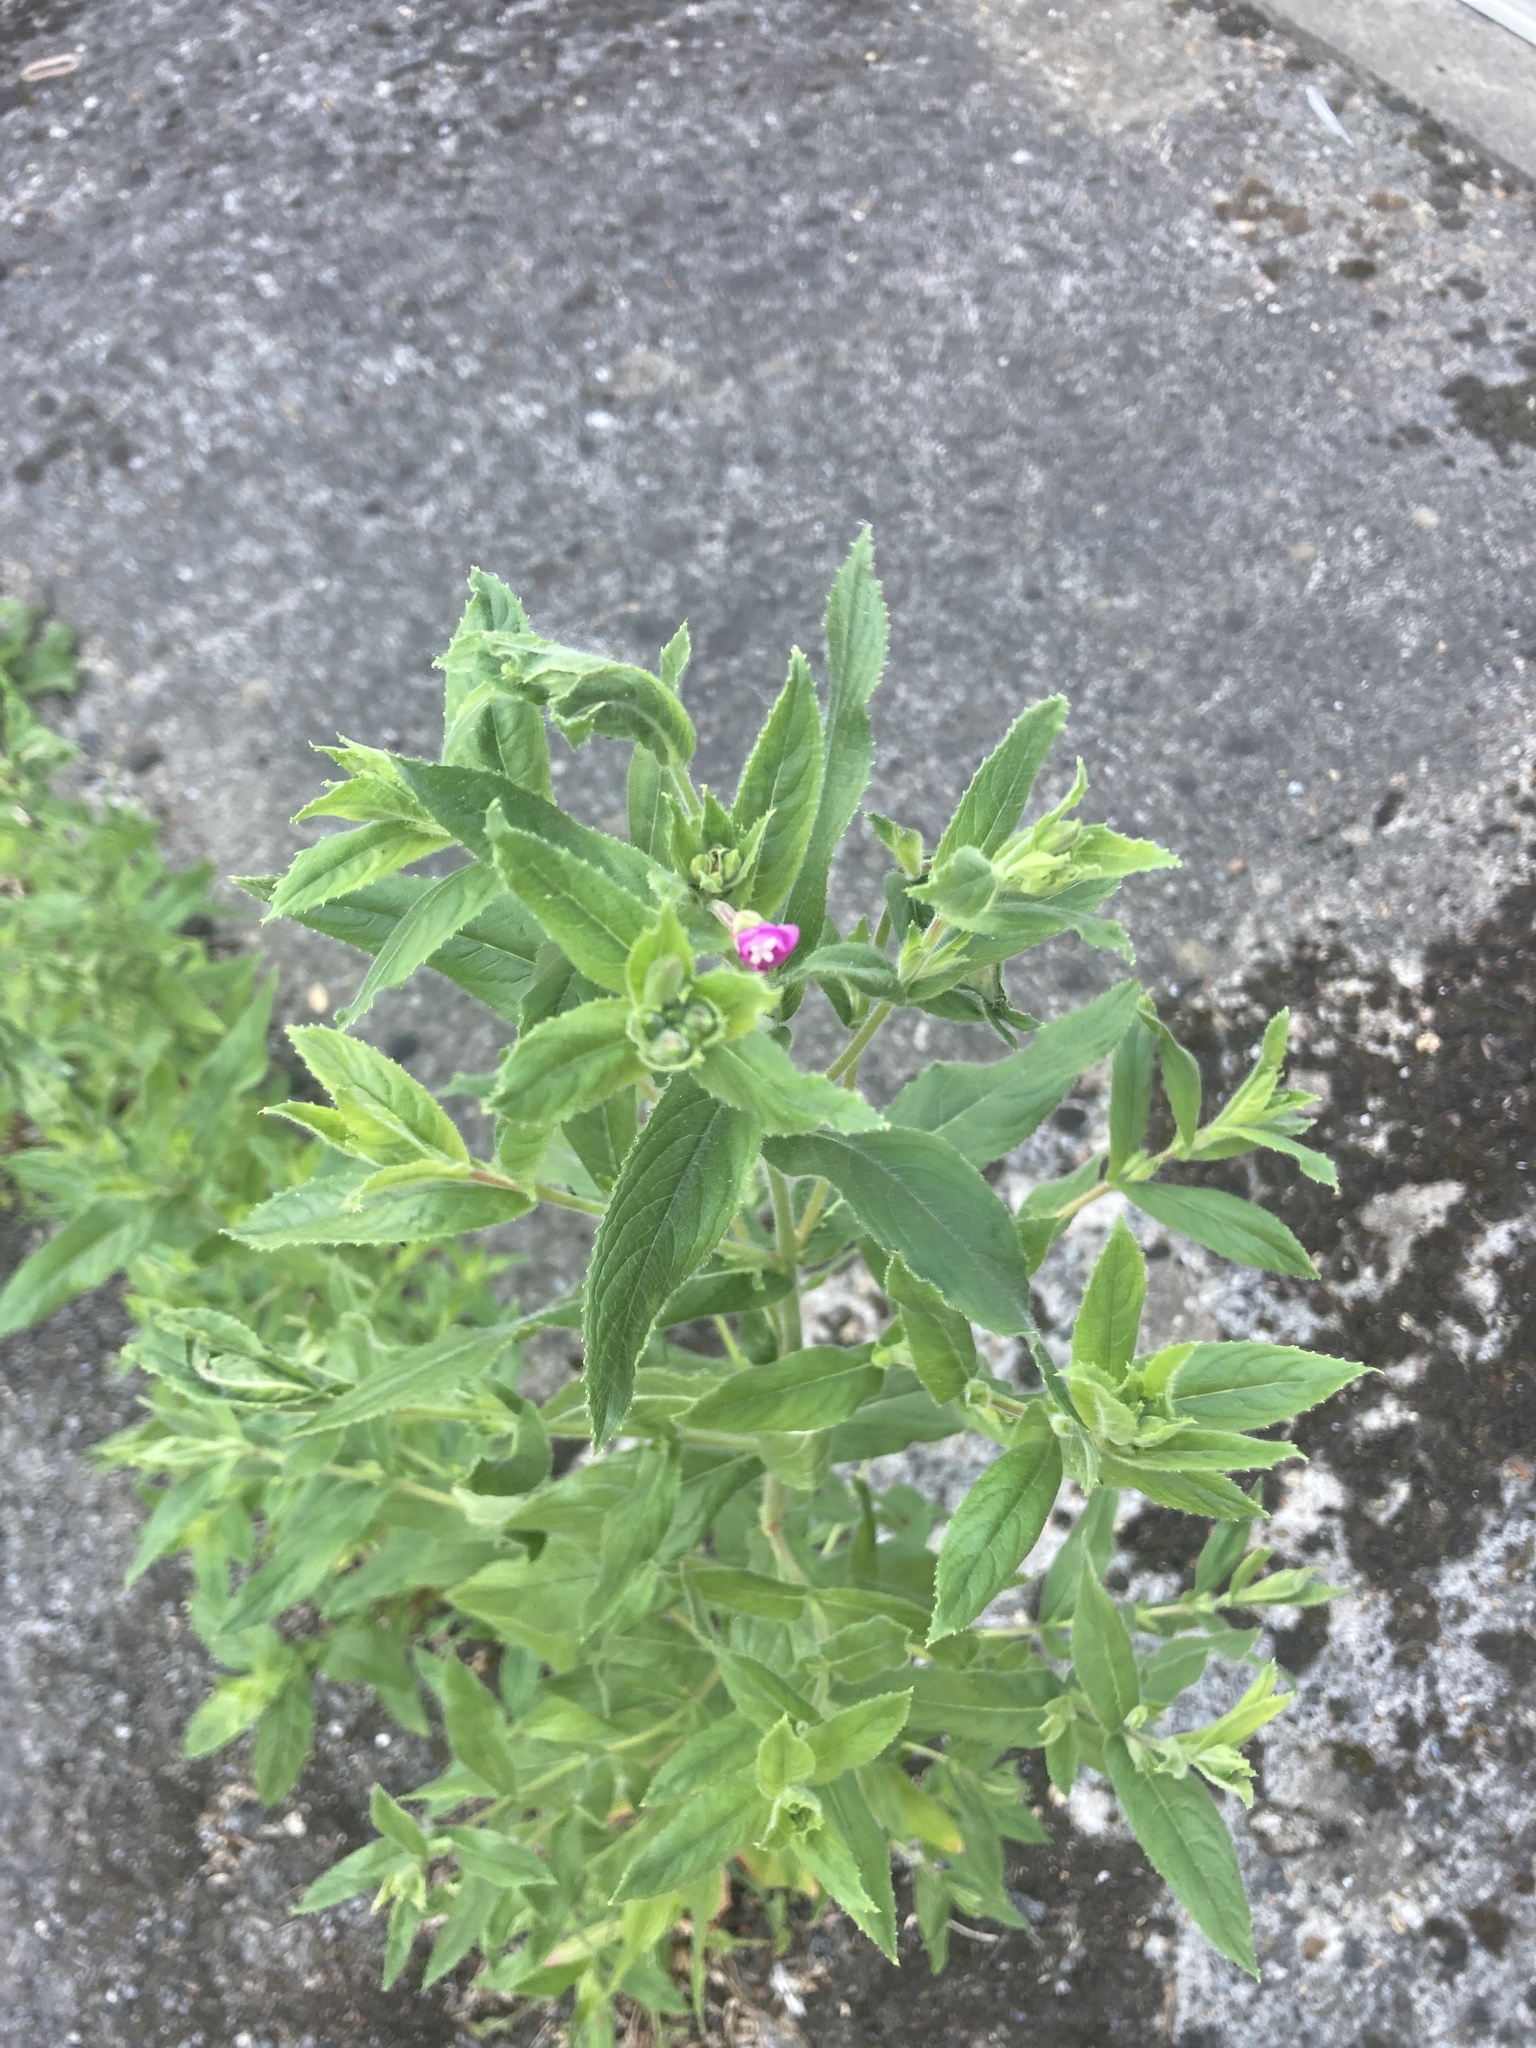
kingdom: Plantae
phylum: Tracheophyta
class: Magnoliopsida
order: Myrtales
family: Onagraceae
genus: Epilobium
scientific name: Epilobium hirsutum
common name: Great willowherb
